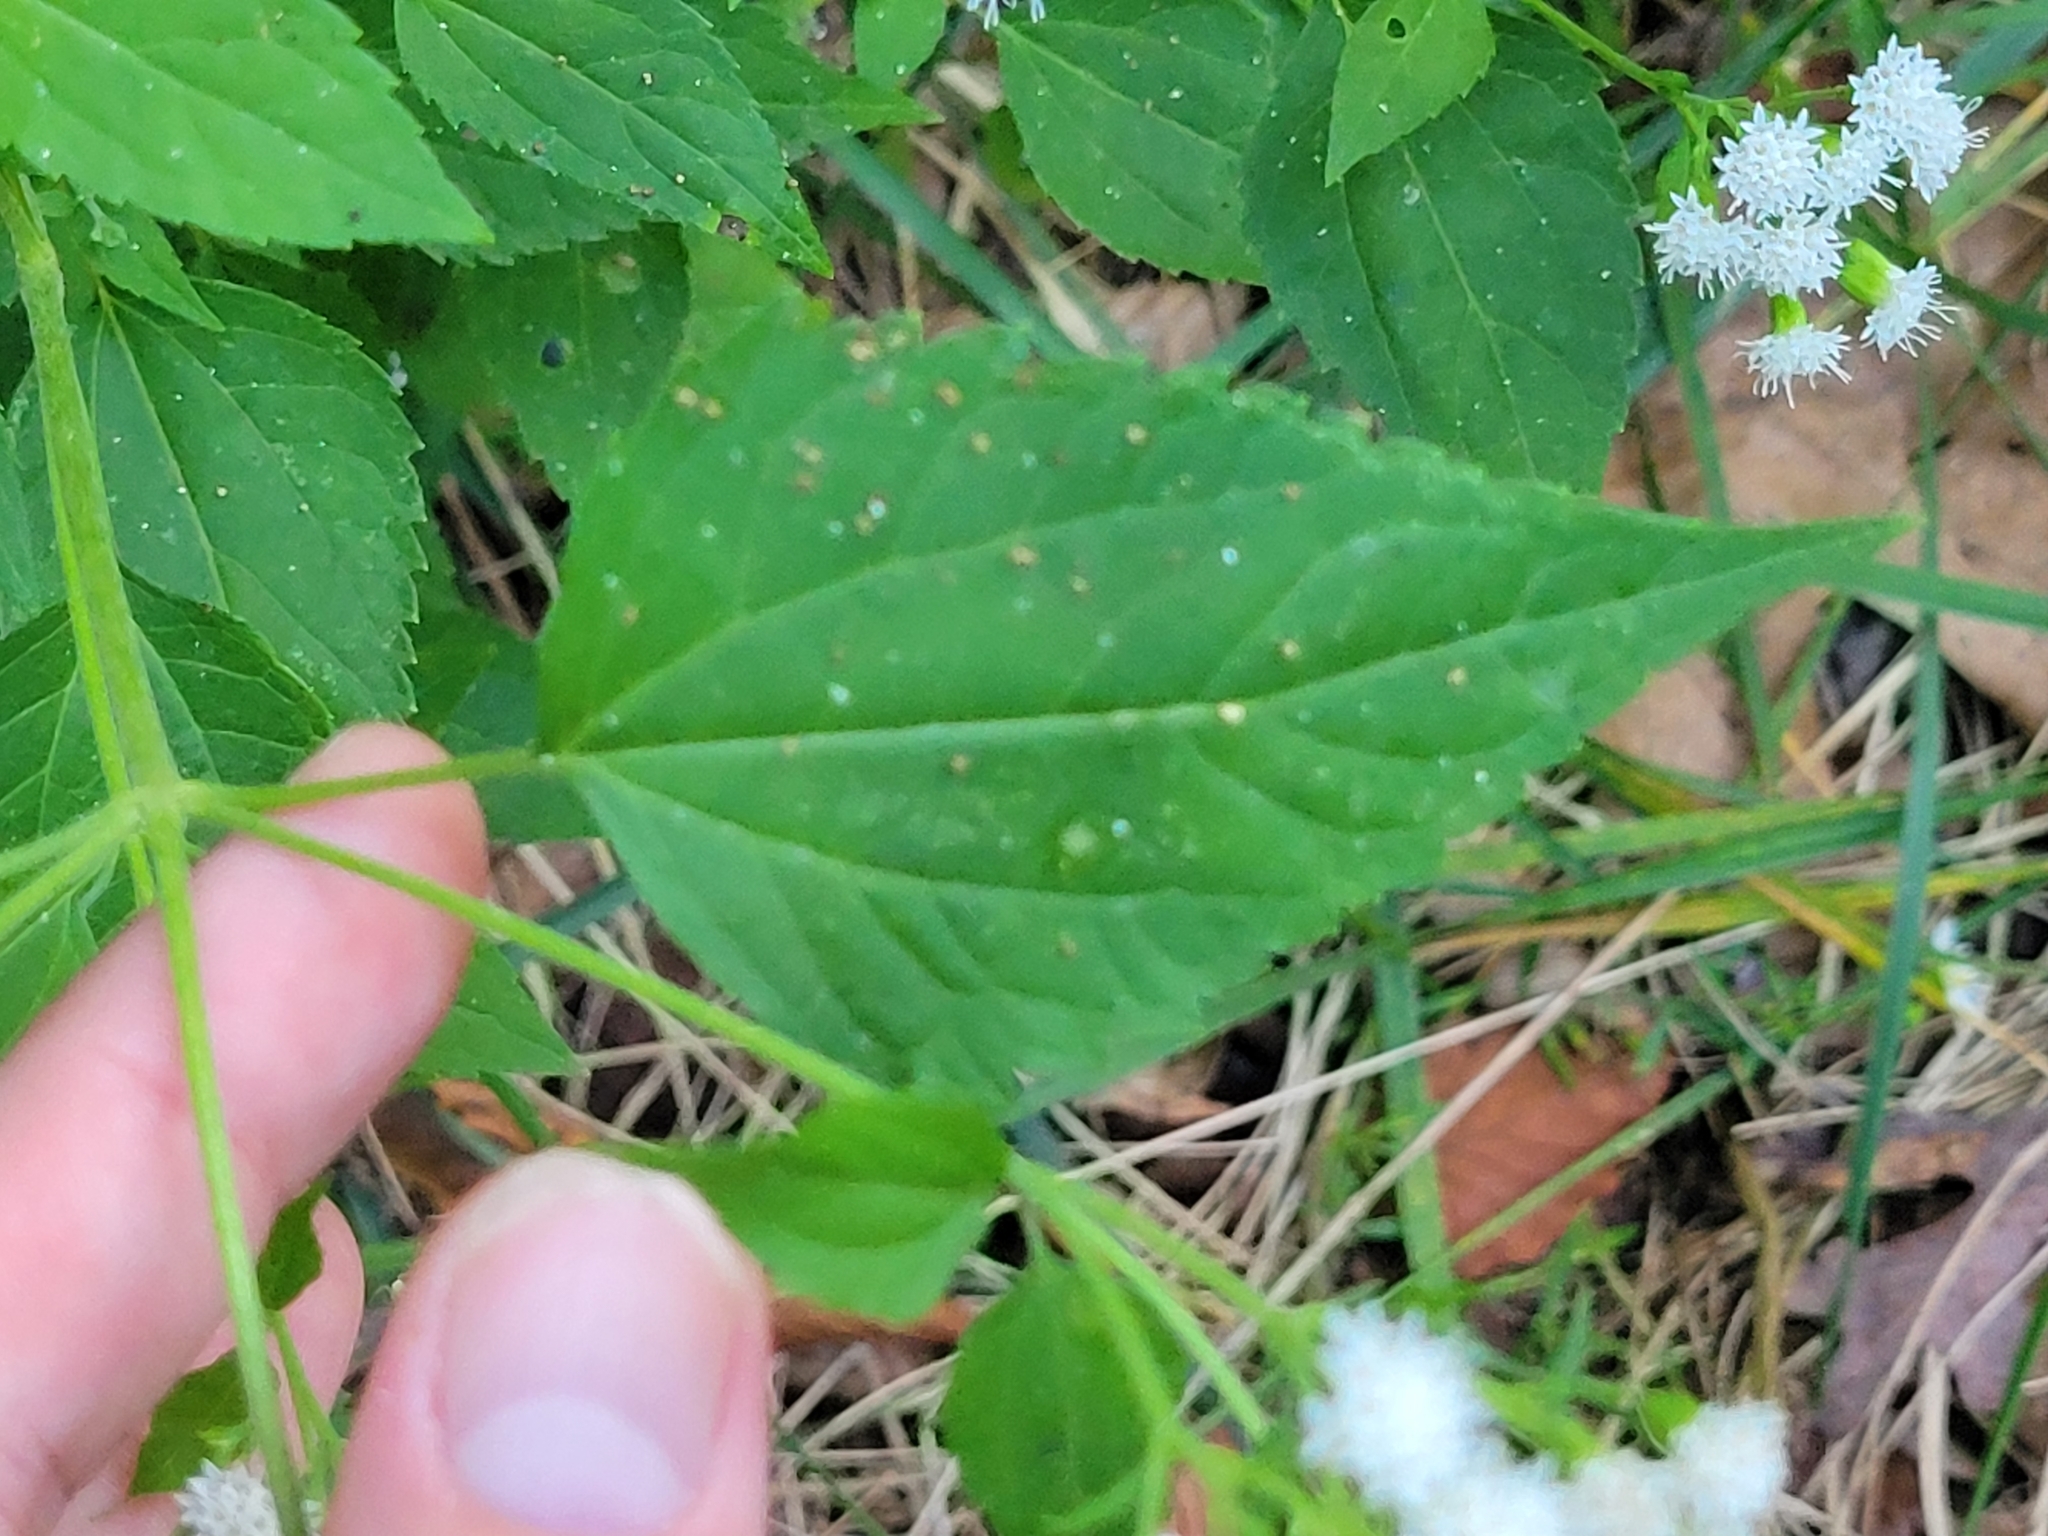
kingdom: Plantae
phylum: Tracheophyta
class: Magnoliopsida
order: Asterales
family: Asteraceae
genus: Ageratina
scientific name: Ageratina altissima
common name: White snakeroot
